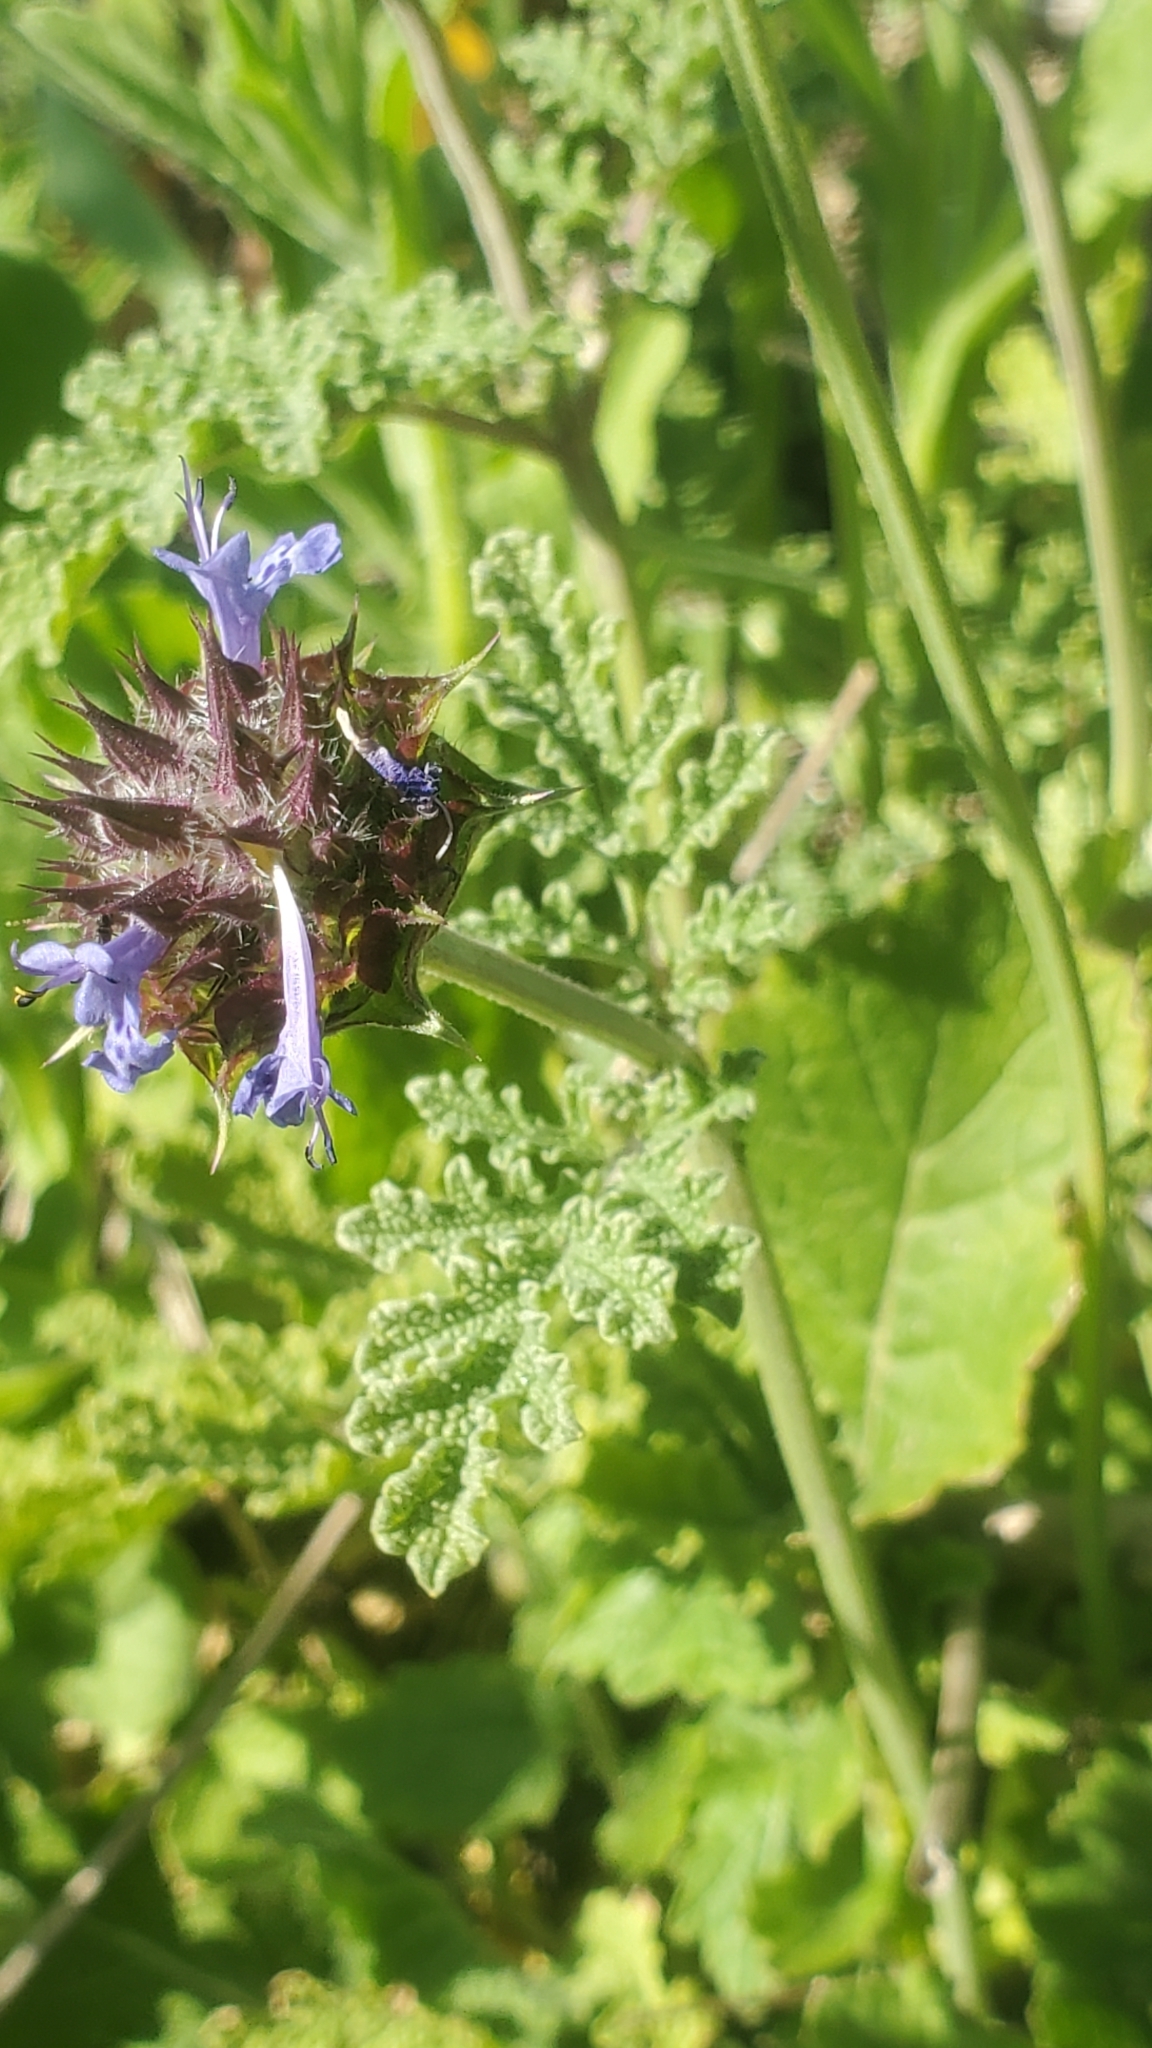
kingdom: Plantae
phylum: Tracheophyta
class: Magnoliopsida
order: Lamiales
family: Lamiaceae
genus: Salvia
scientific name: Salvia columbariae
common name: Chia
